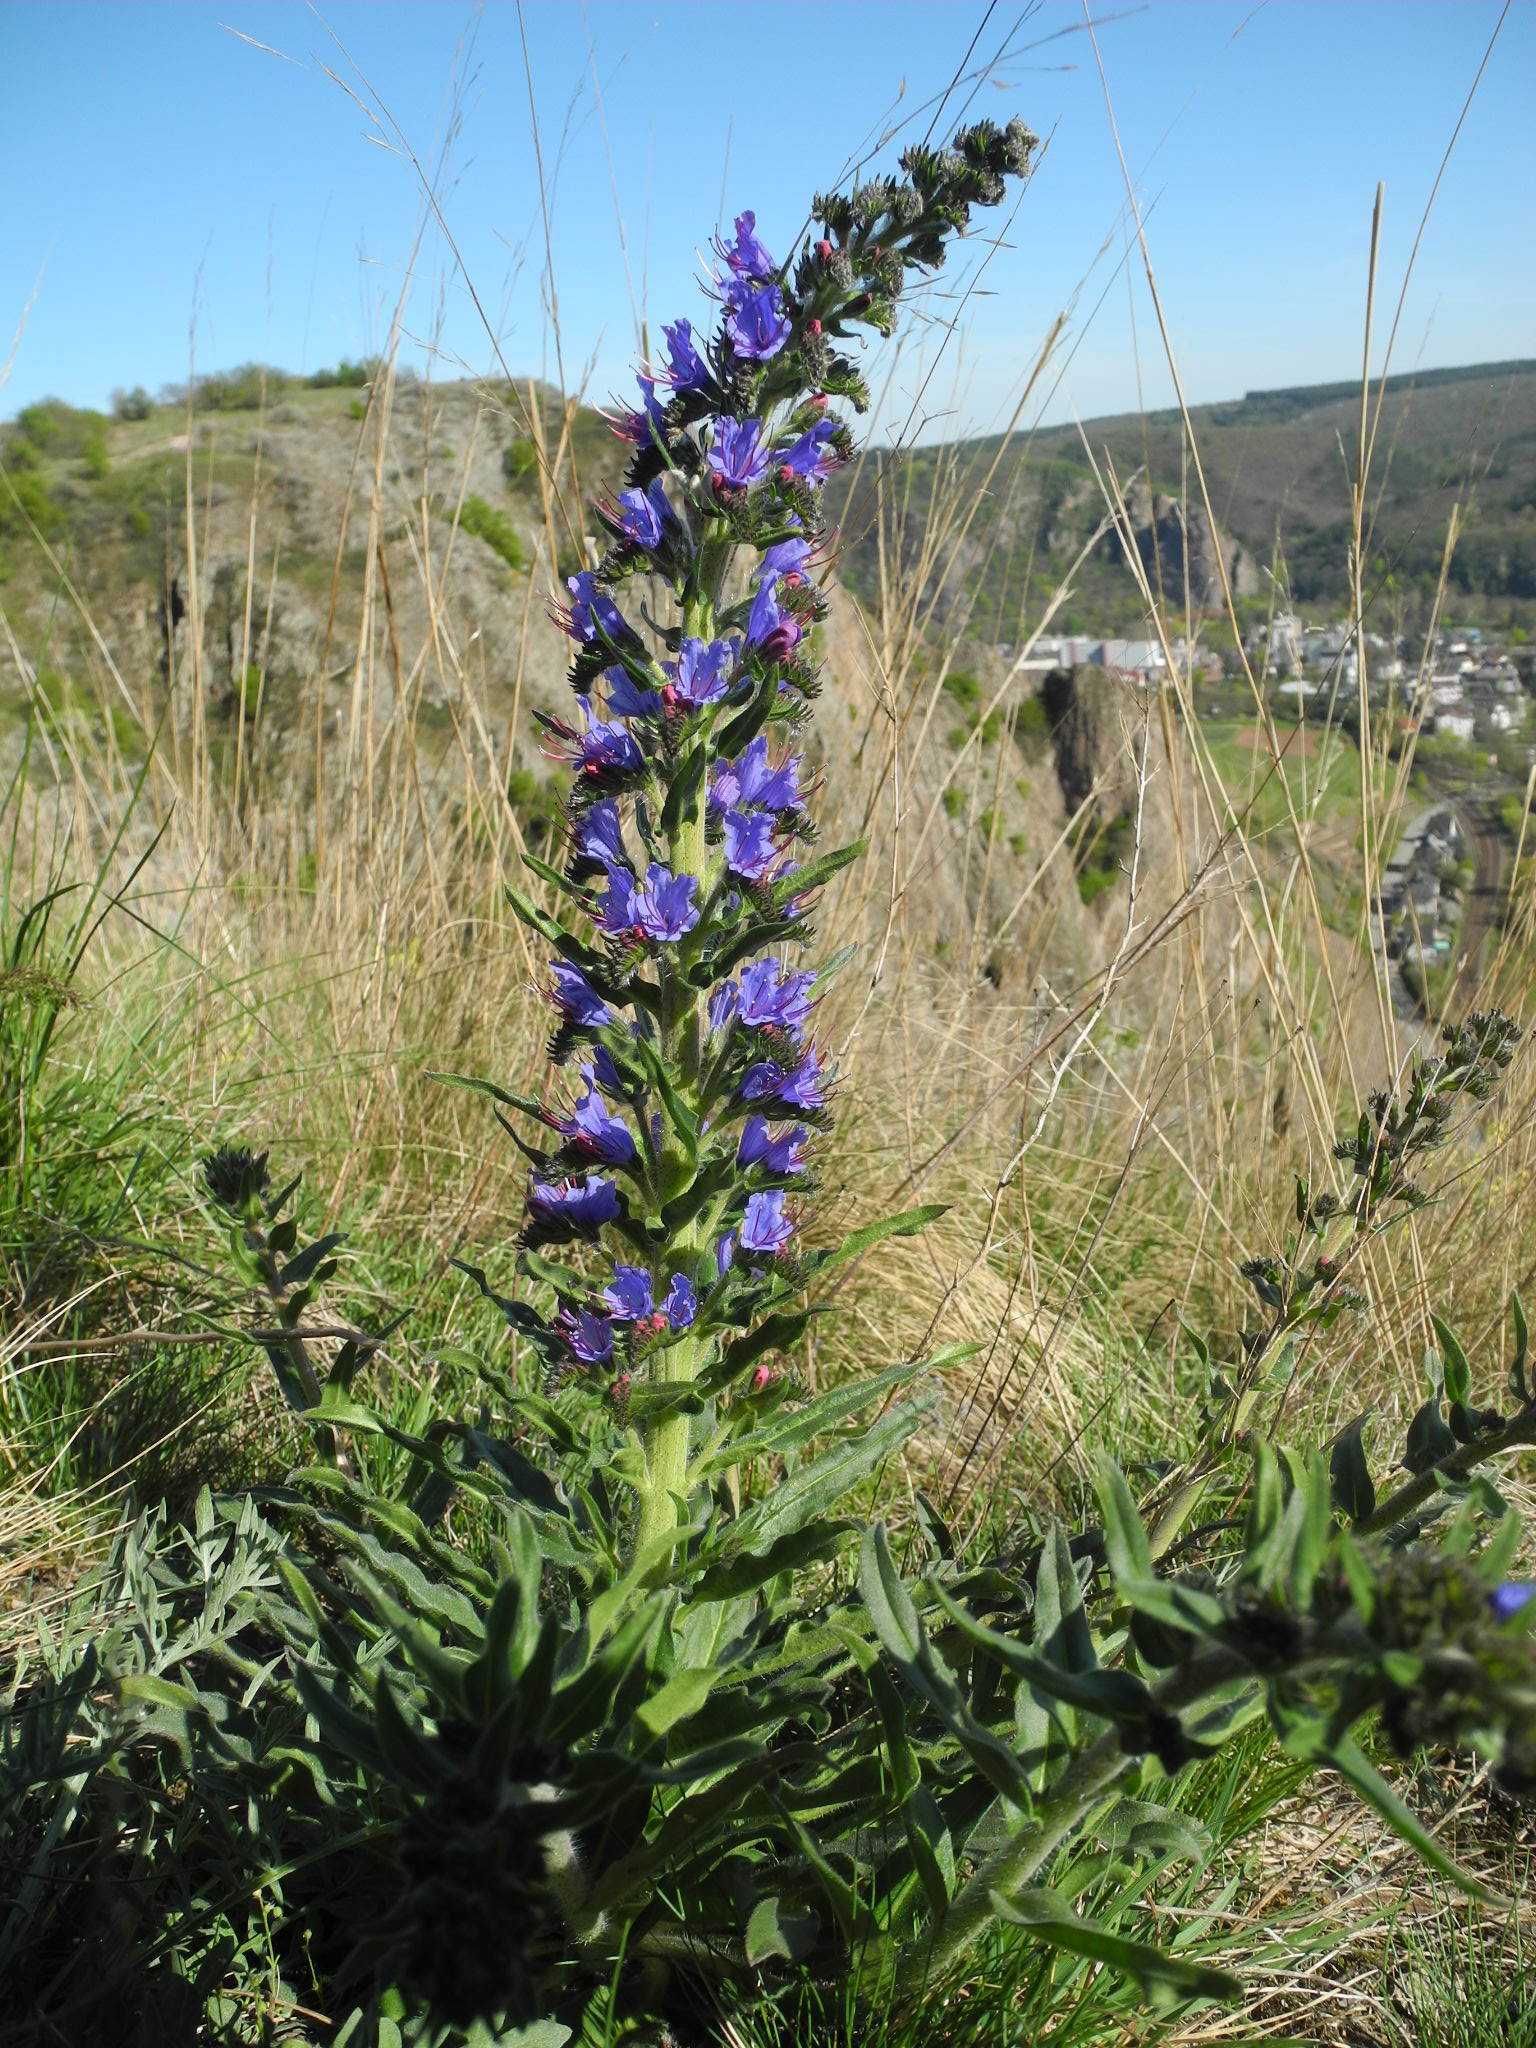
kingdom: Plantae
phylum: Tracheophyta
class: Magnoliopsida
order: Boraginales
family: Boraginaceae
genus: Echium
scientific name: Echium vulgare
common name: Common viper's bugloss
